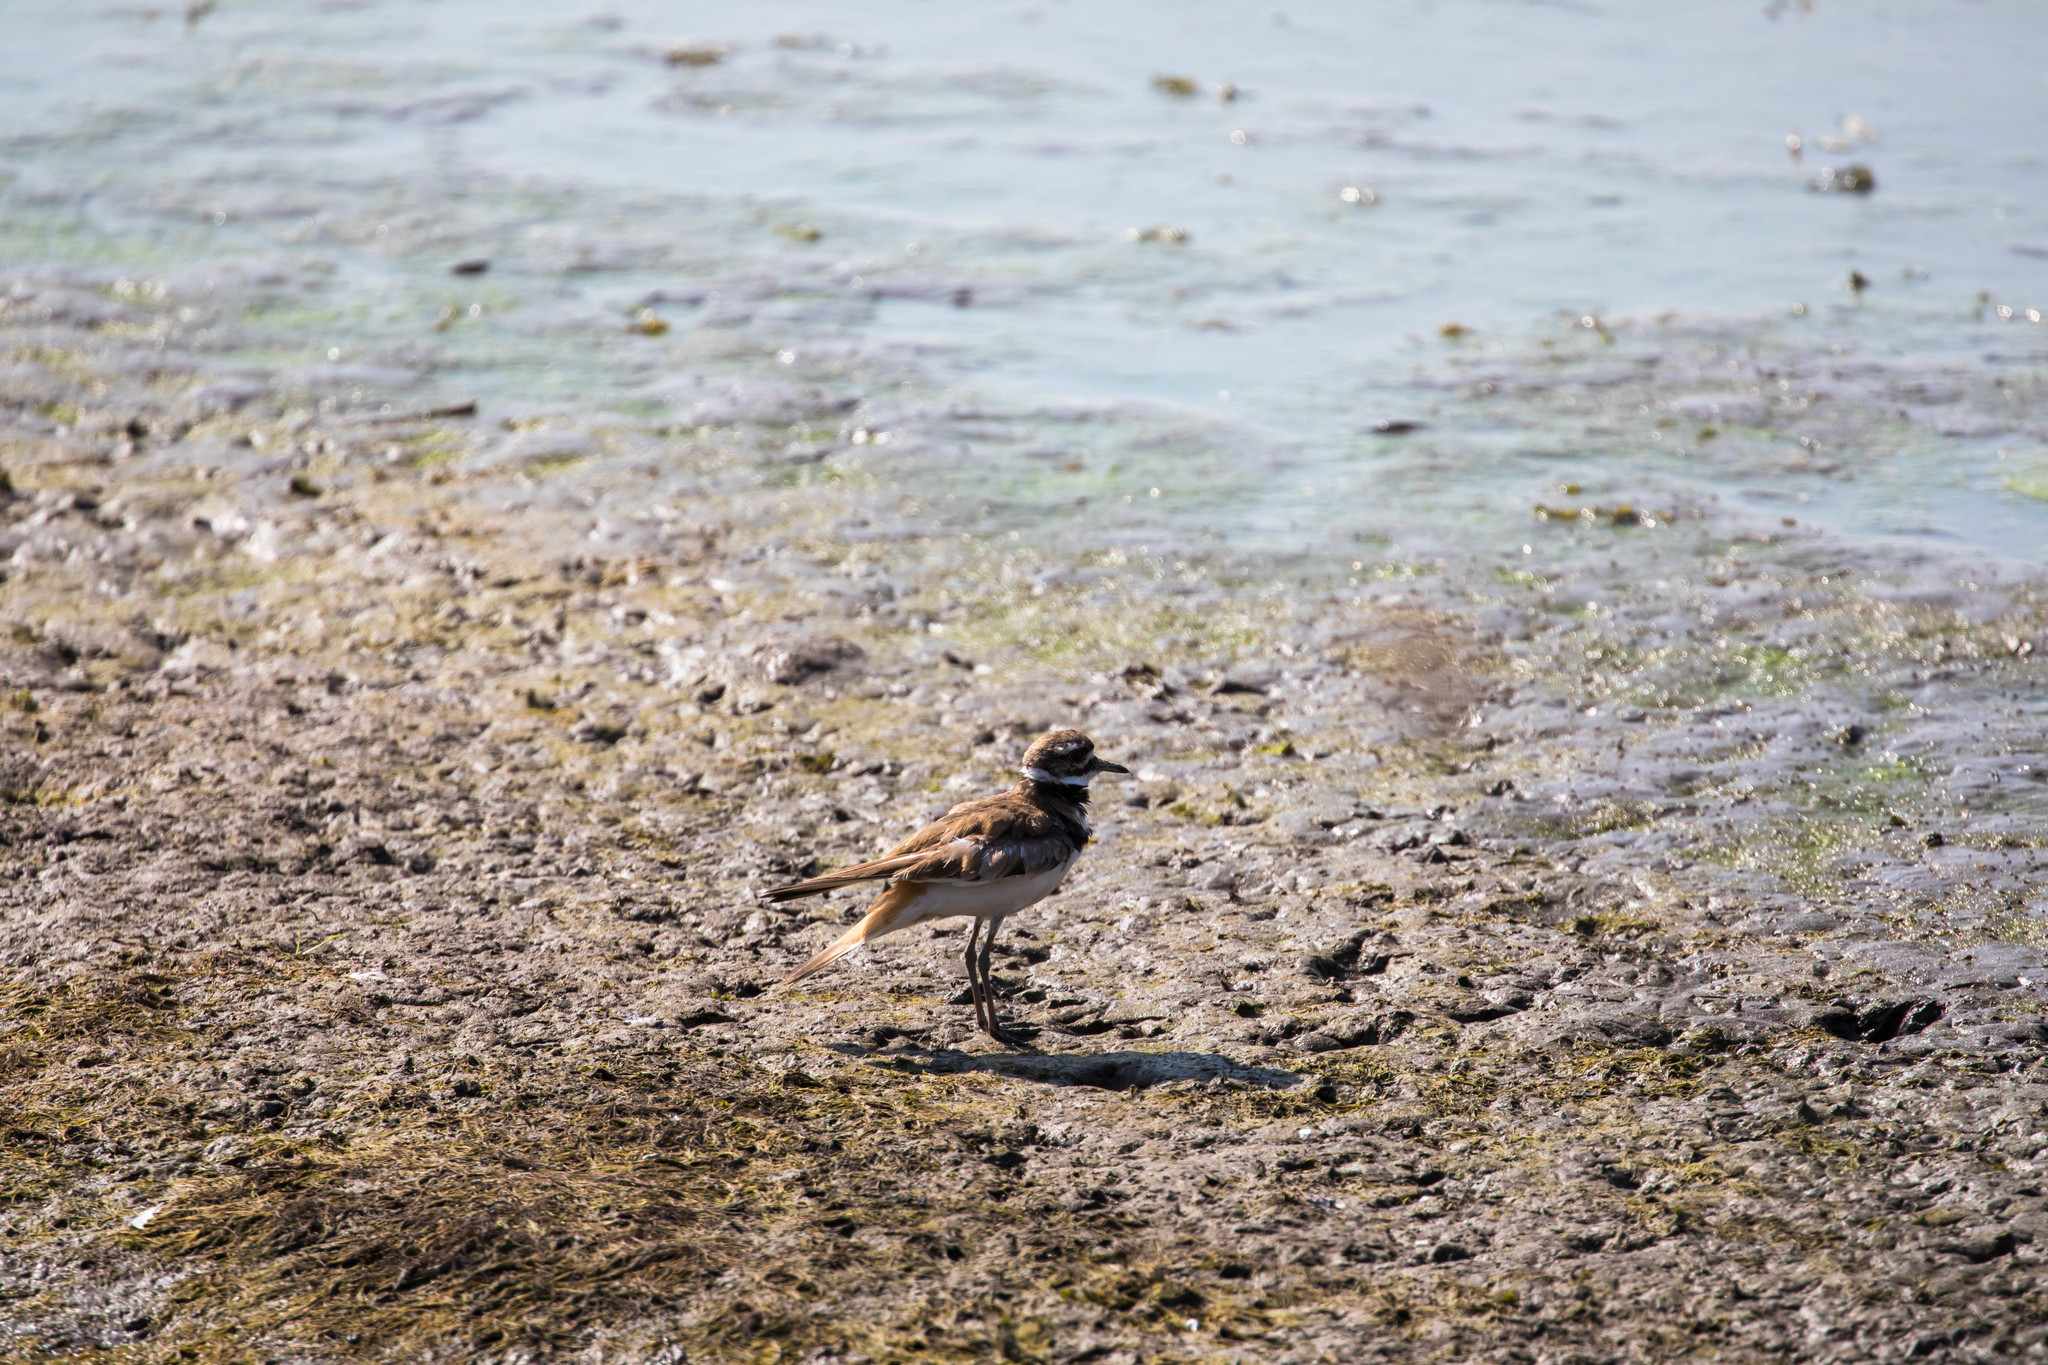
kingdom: Animalia
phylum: Chordata
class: Aves
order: Charadriiformes
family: Charadriidae
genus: Charadrius
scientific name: Charadrius vociferus
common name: Killdeer
